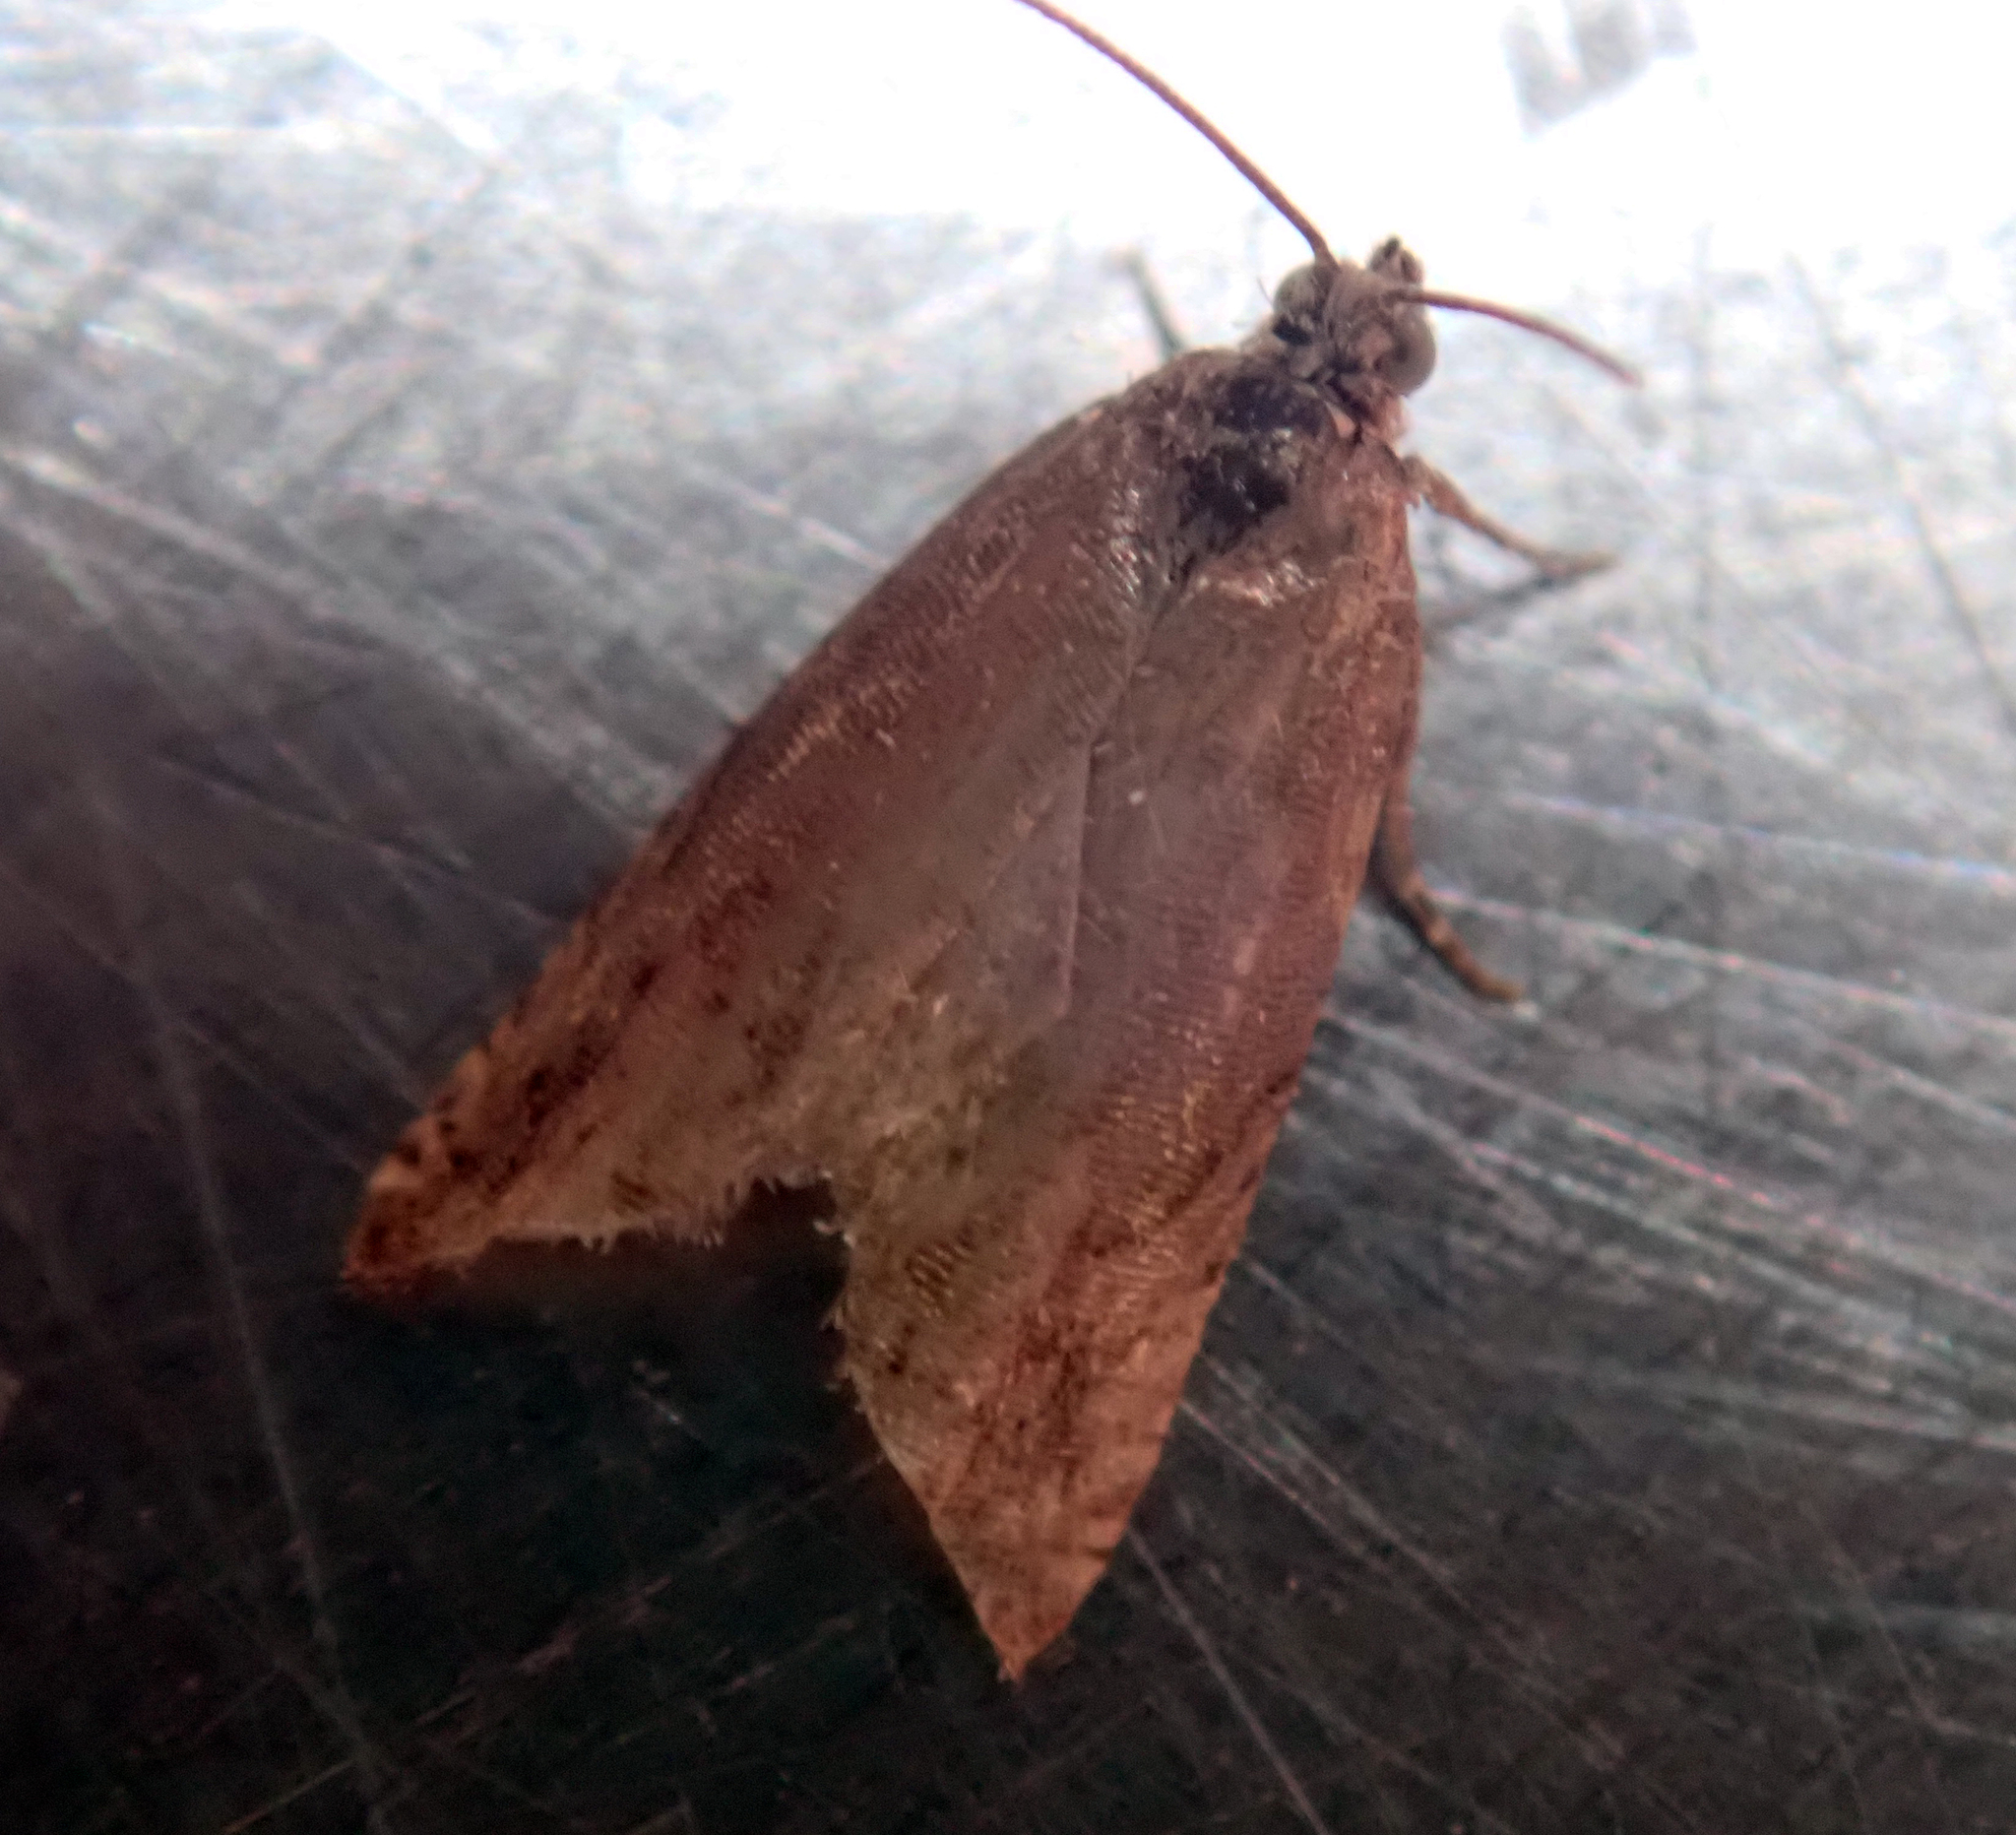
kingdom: Animalia
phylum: Arthropoda
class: Insecta
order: Lepidoptera
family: Tortricidae
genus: Cydia
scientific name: Cydia succedana
